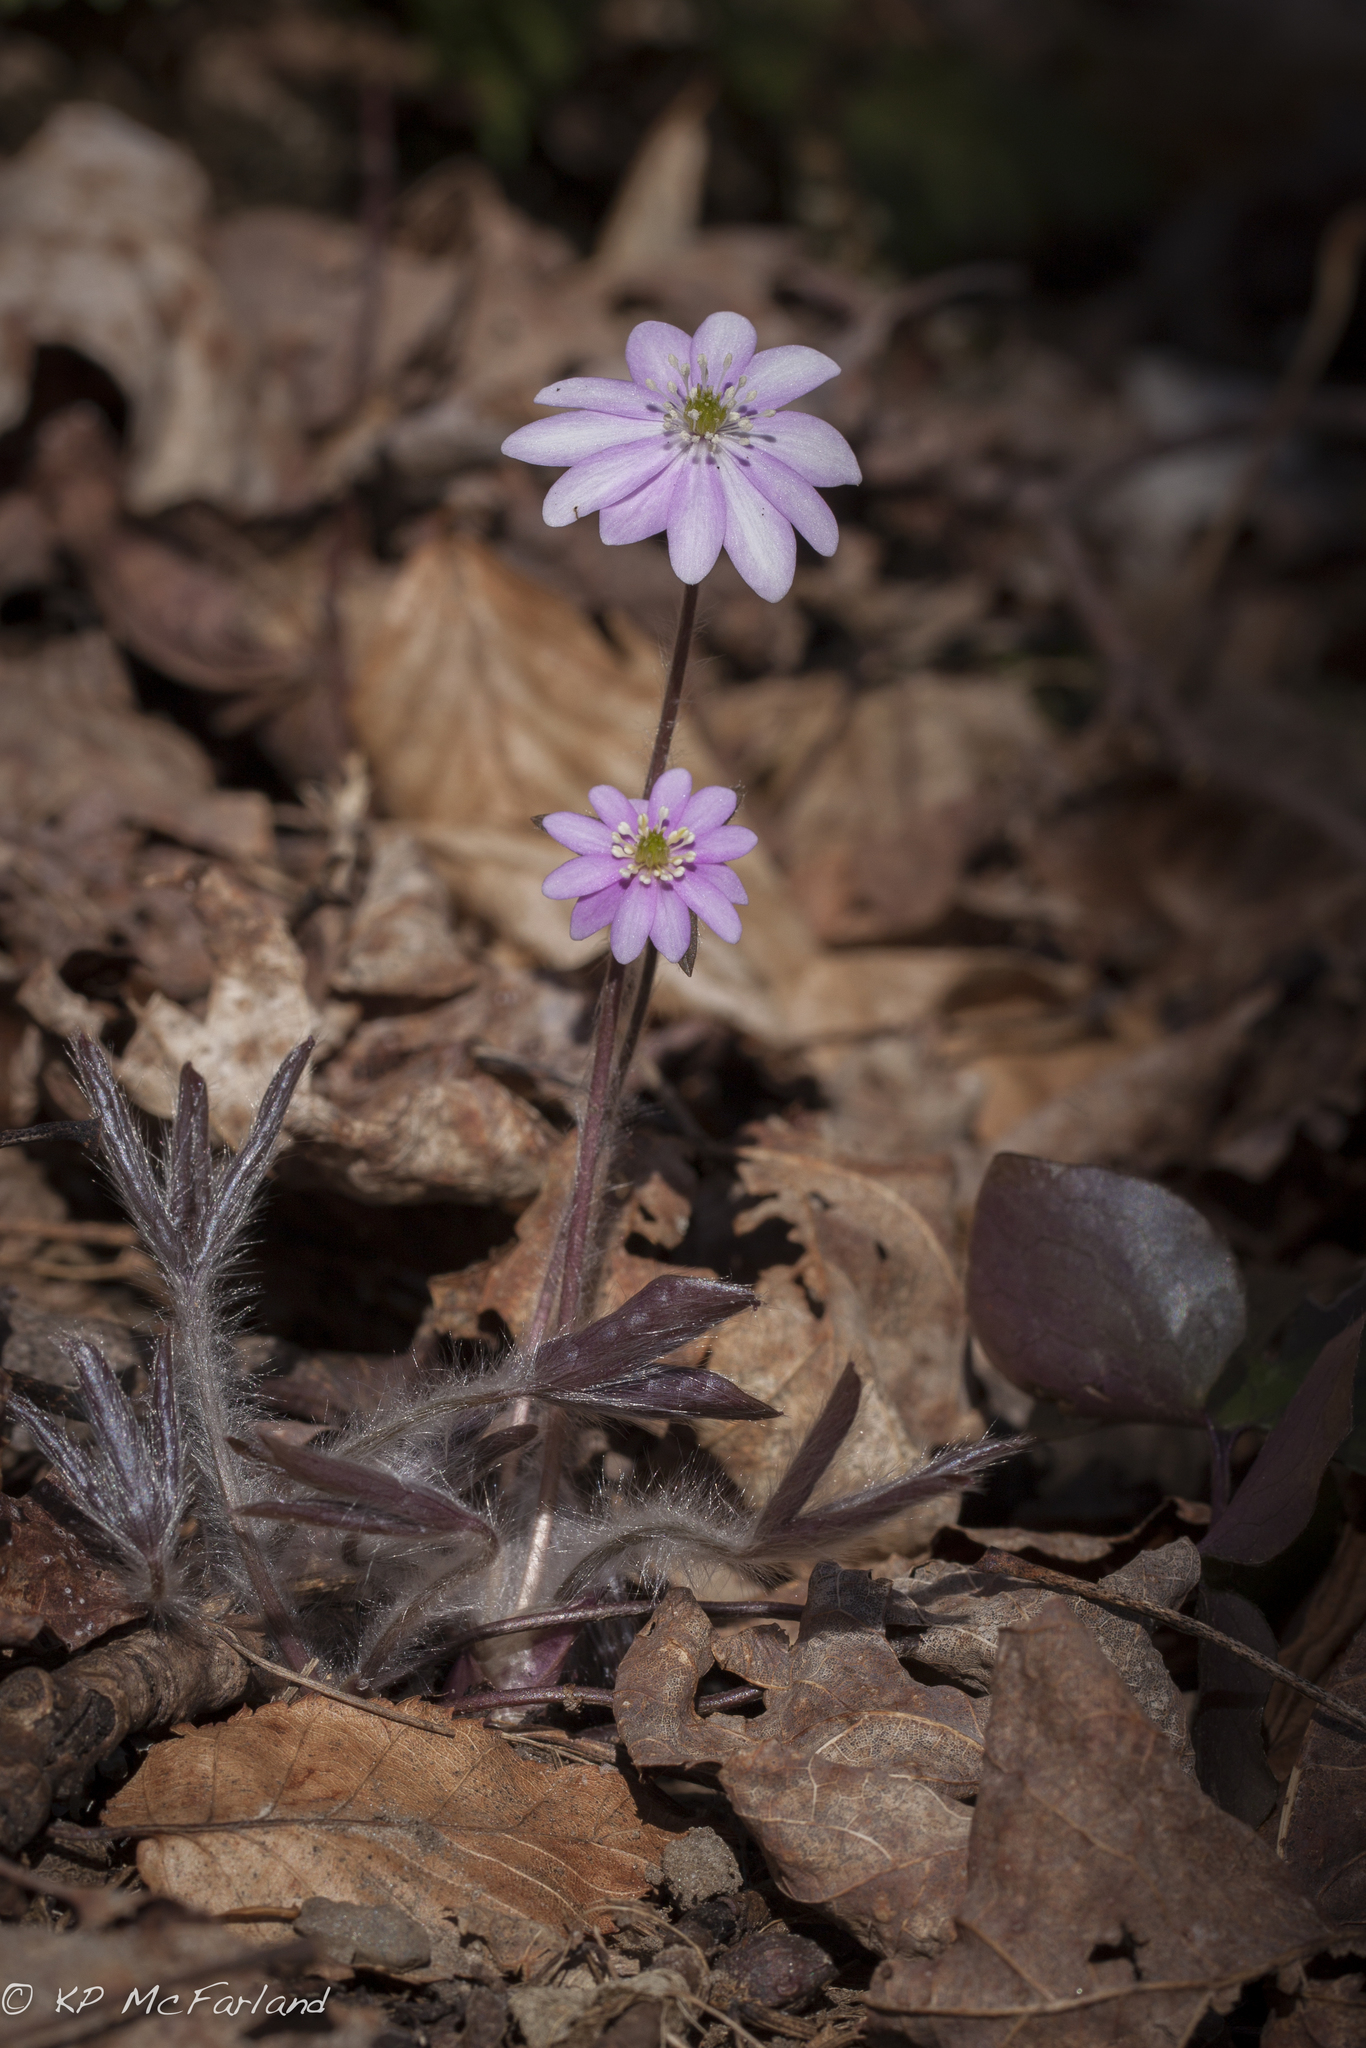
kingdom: Plantae
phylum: Tracheophyta
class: Magnoliopsida
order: Ranunculales
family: Ranunculaceae
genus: Hepatica
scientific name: Hepatica acutiloba
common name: Sharp-lobed hepatica
